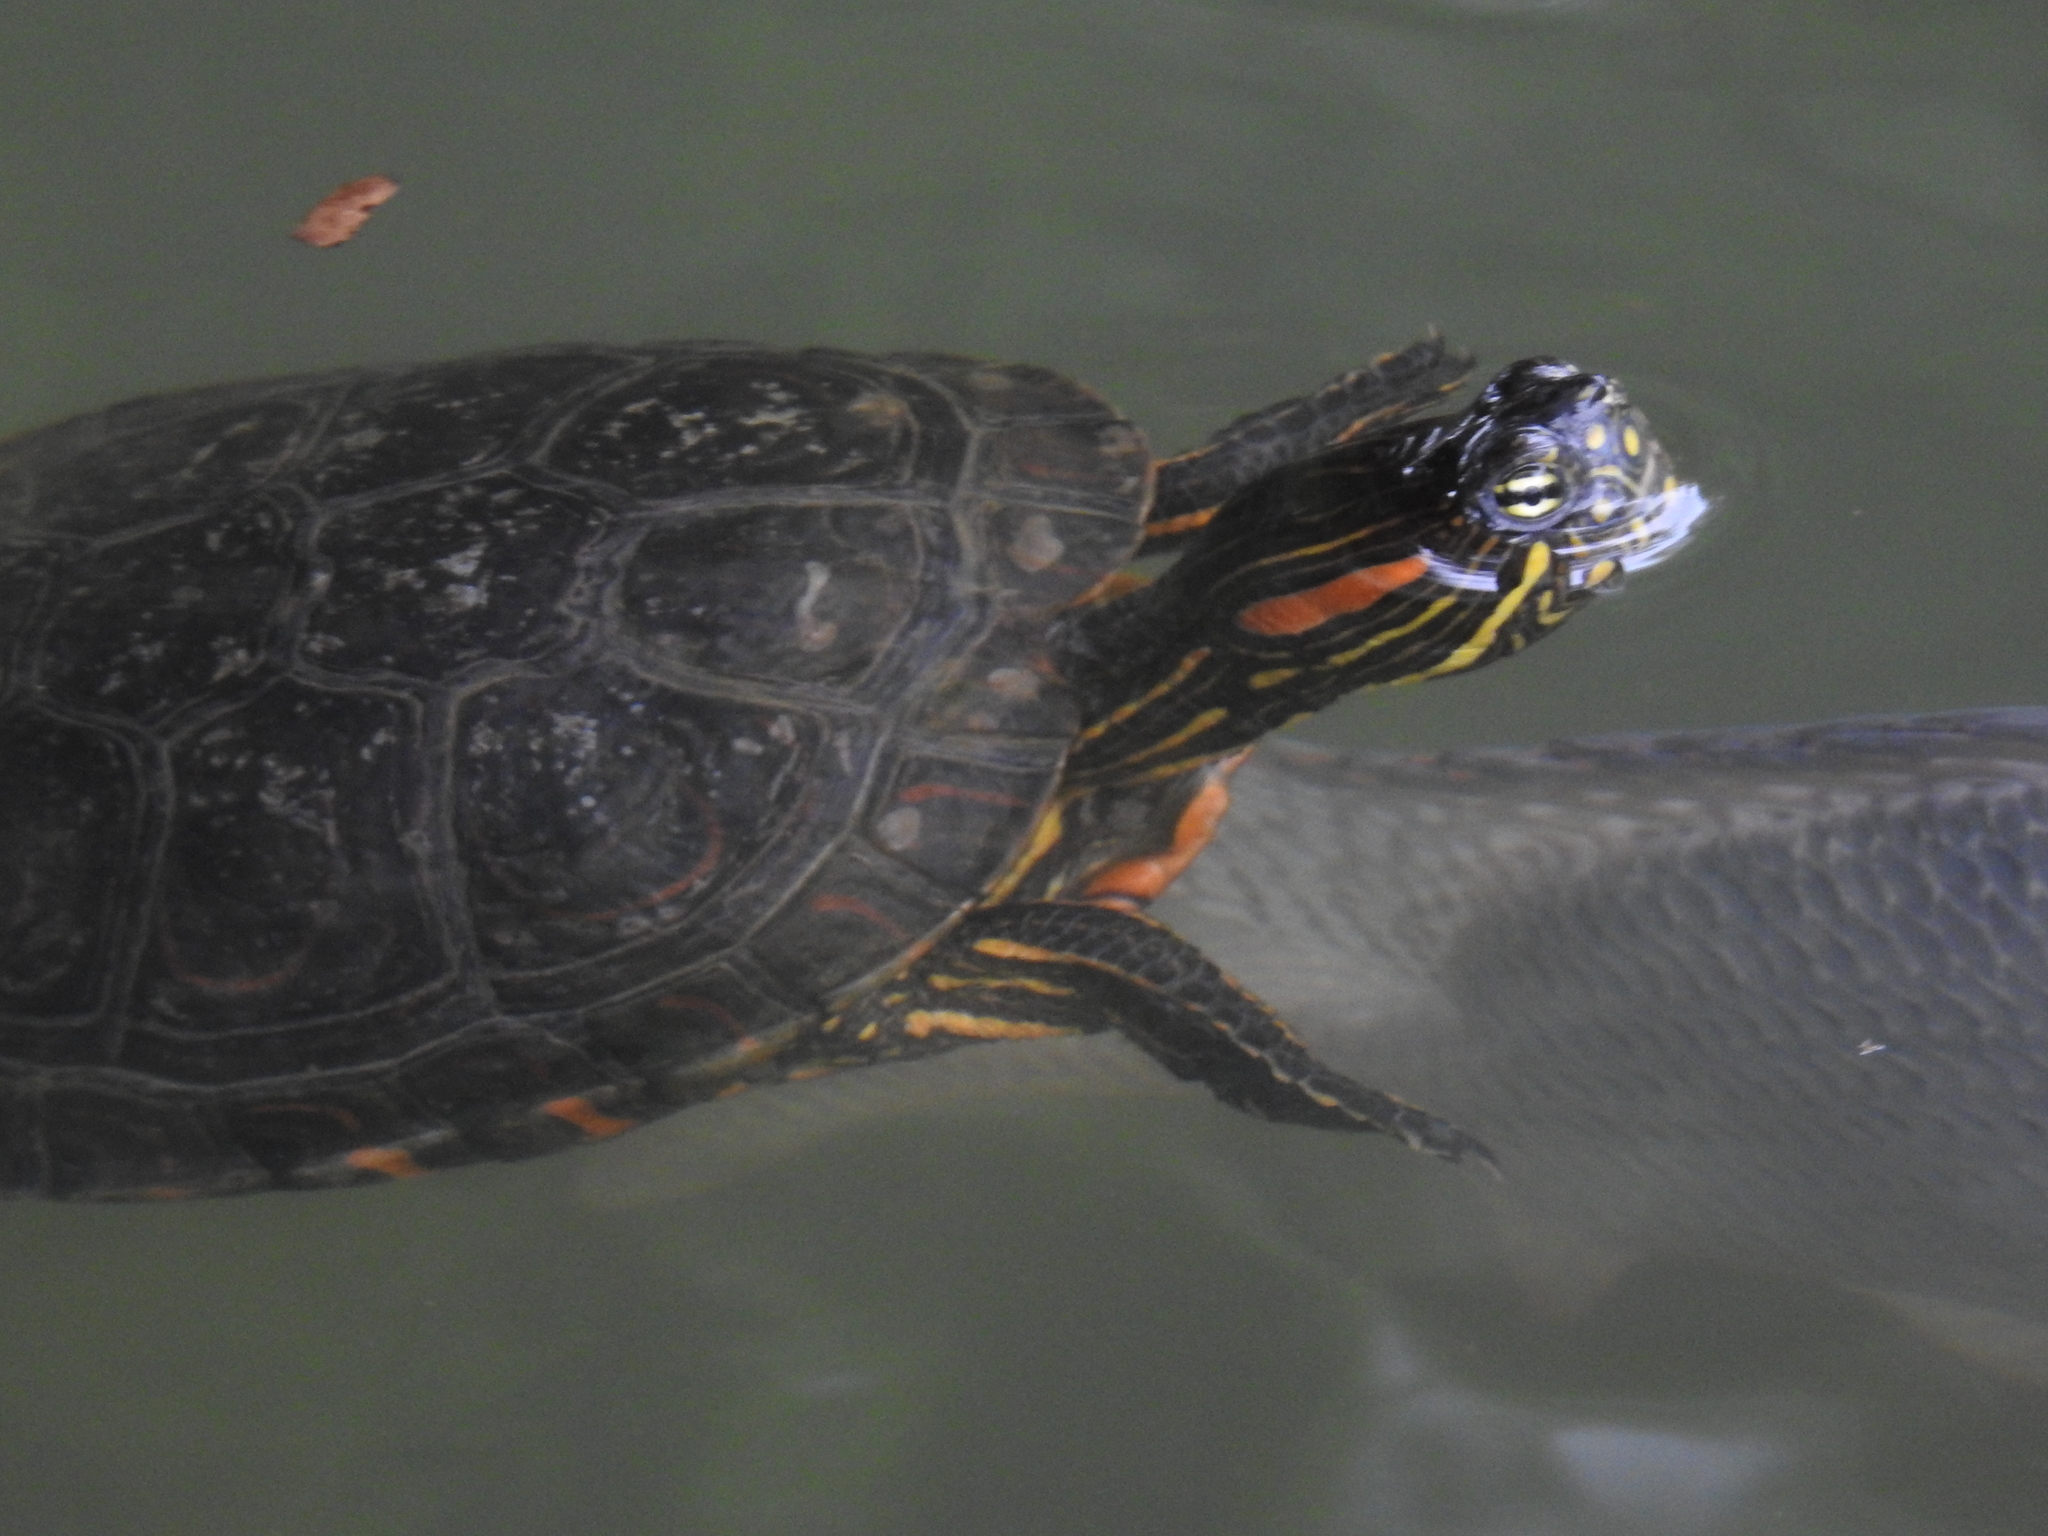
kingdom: Animalia
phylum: Chordata
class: Testudines
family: Emydidae
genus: Trachemys
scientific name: Trachemys callirostris
